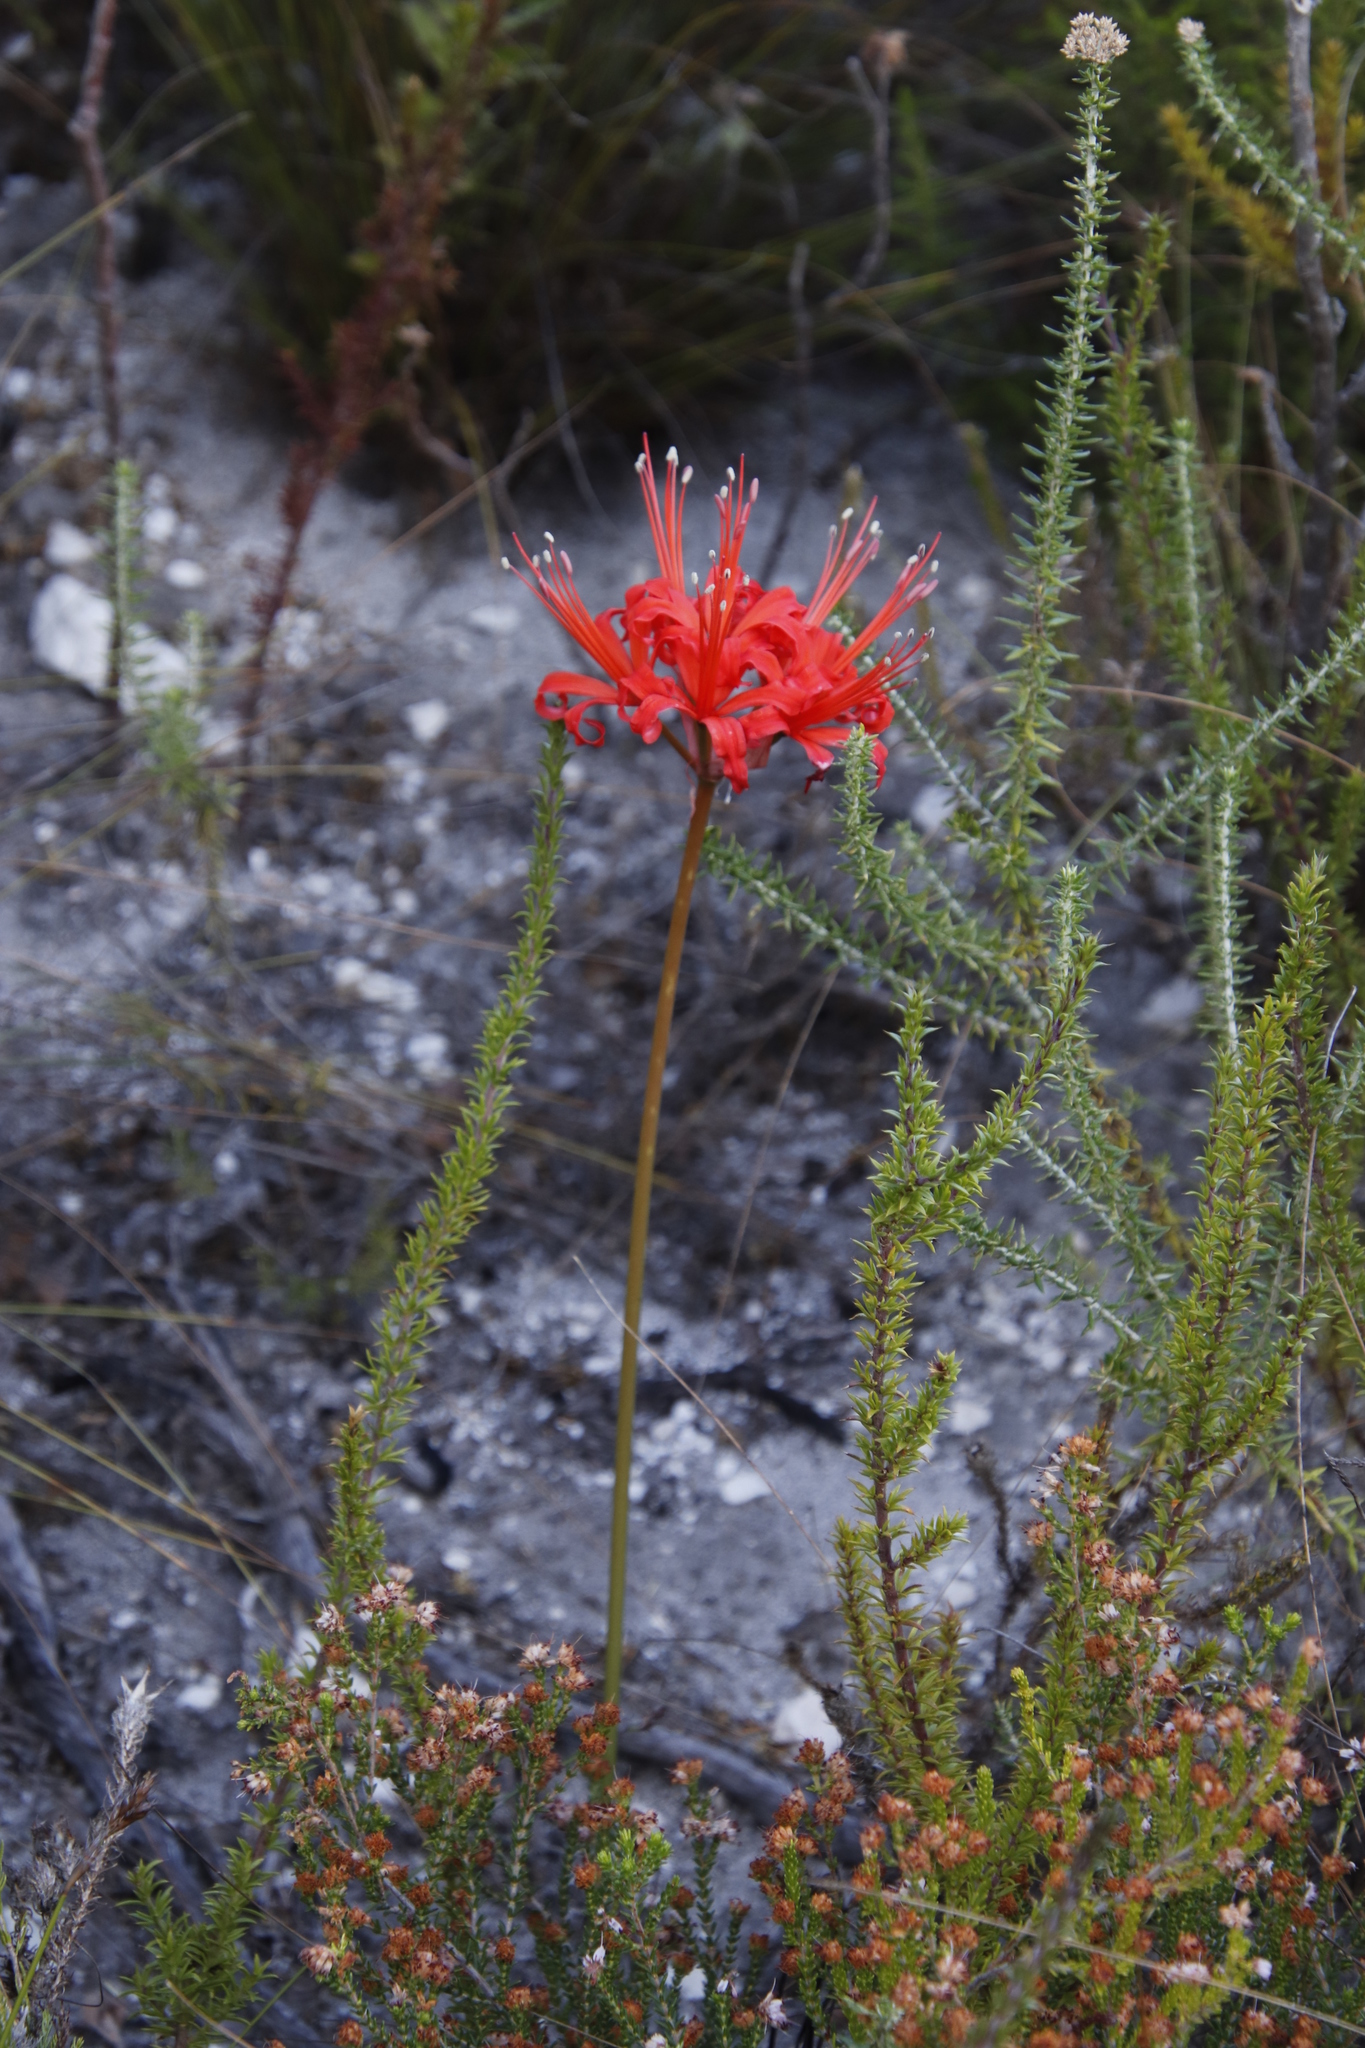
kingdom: Plantae
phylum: Tracheophyta
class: Liliopsida
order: Asparagales
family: Amaryllidaceae
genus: Nerine
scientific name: Nerine sarniensis
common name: Guernsey-lily
